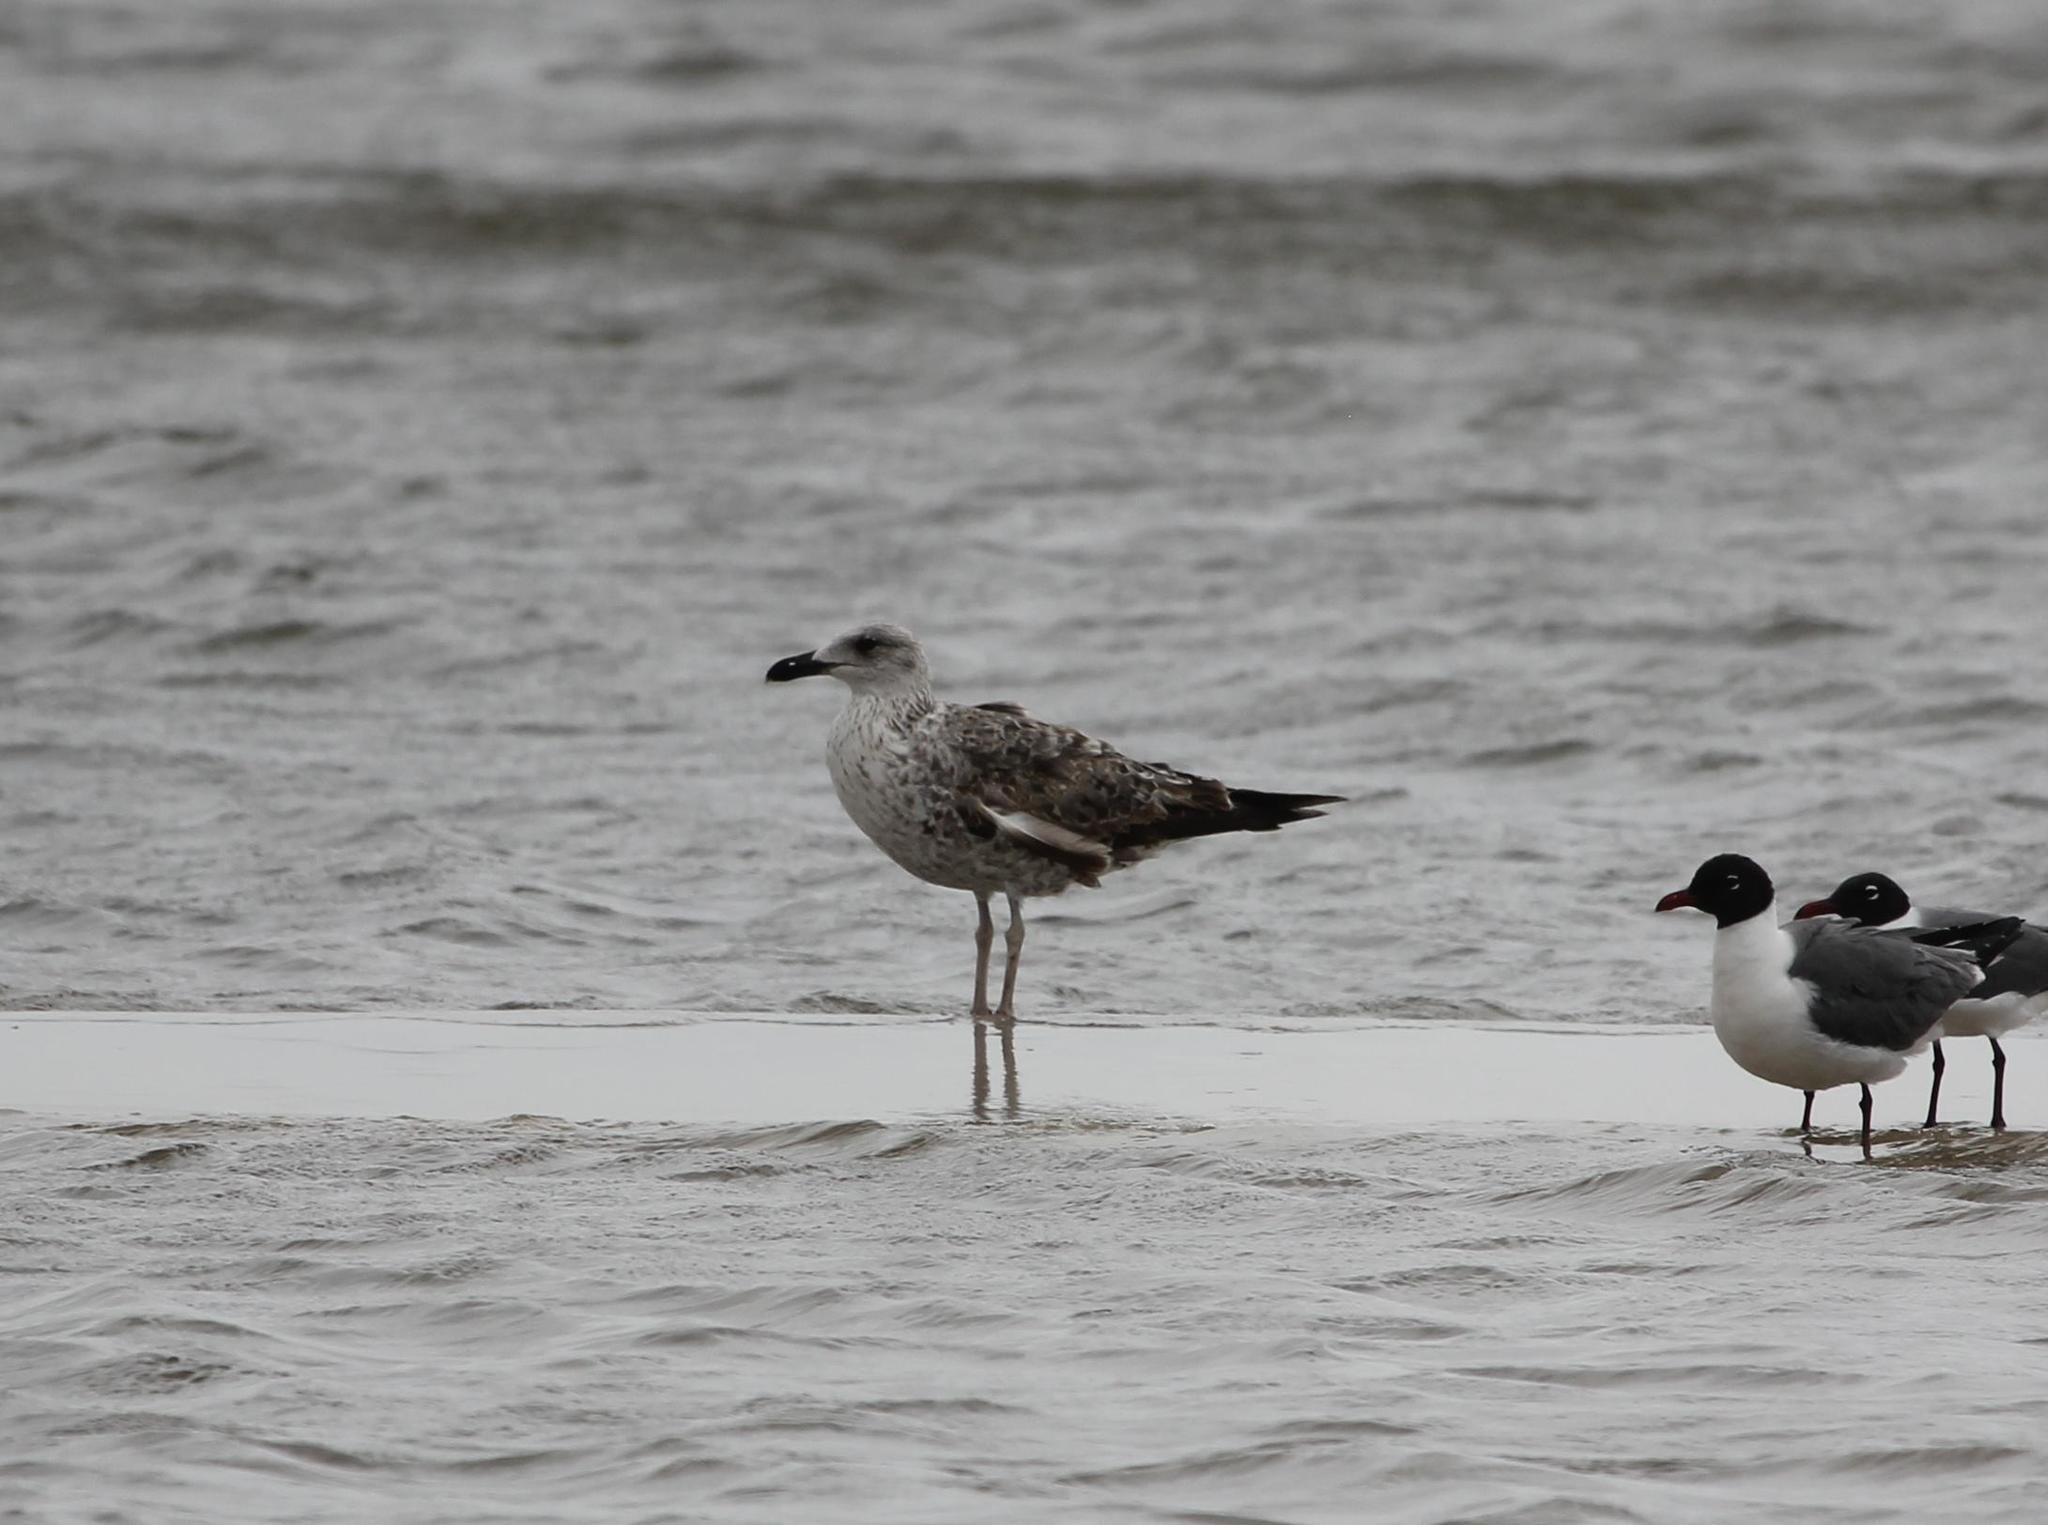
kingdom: Animalia
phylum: Chordata
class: Aves
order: Charadriiformes
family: Laridae
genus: Larus
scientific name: Larus fuscus
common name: Lesser black-backed gull
